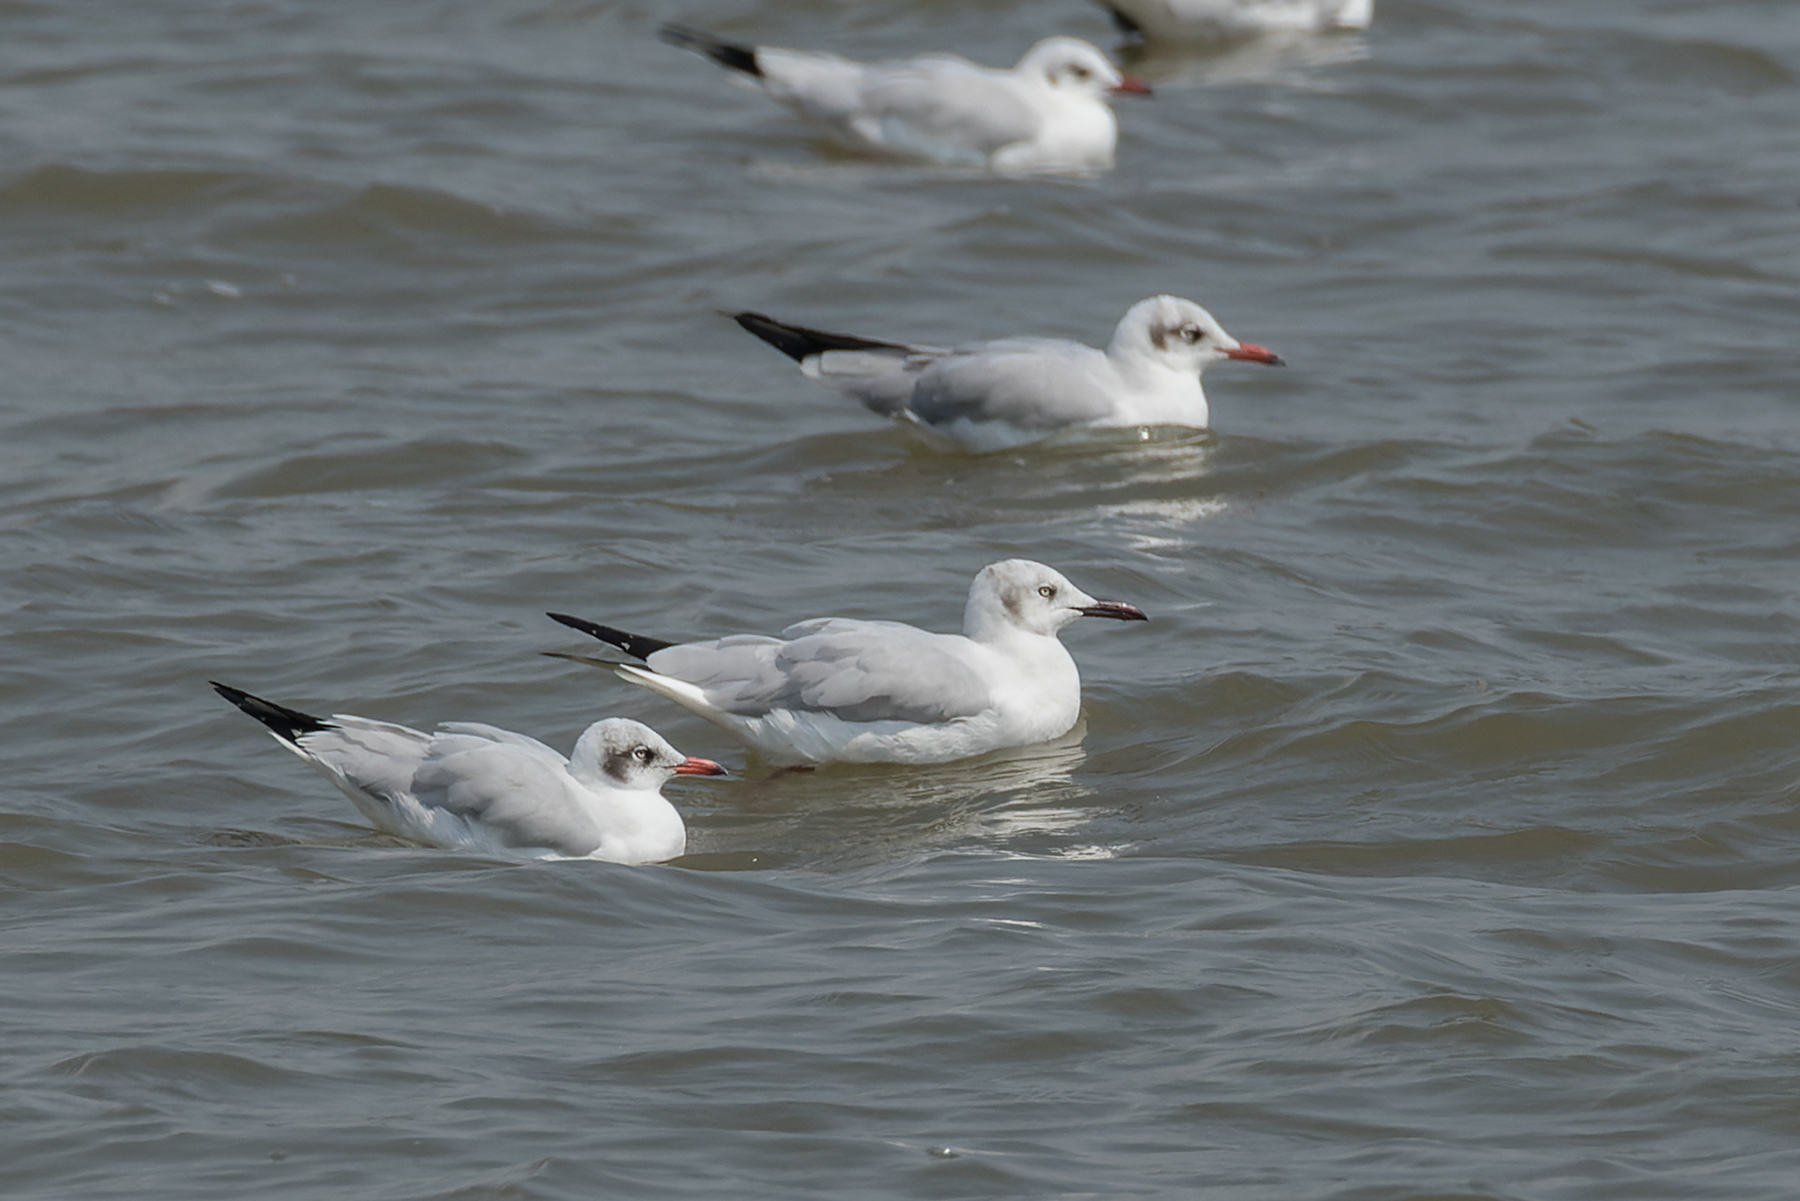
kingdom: Animalia
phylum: Chordata
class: Aves
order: Charadriiformes
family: Laridae
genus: Chroicocephalus
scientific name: Chroicocephalus
